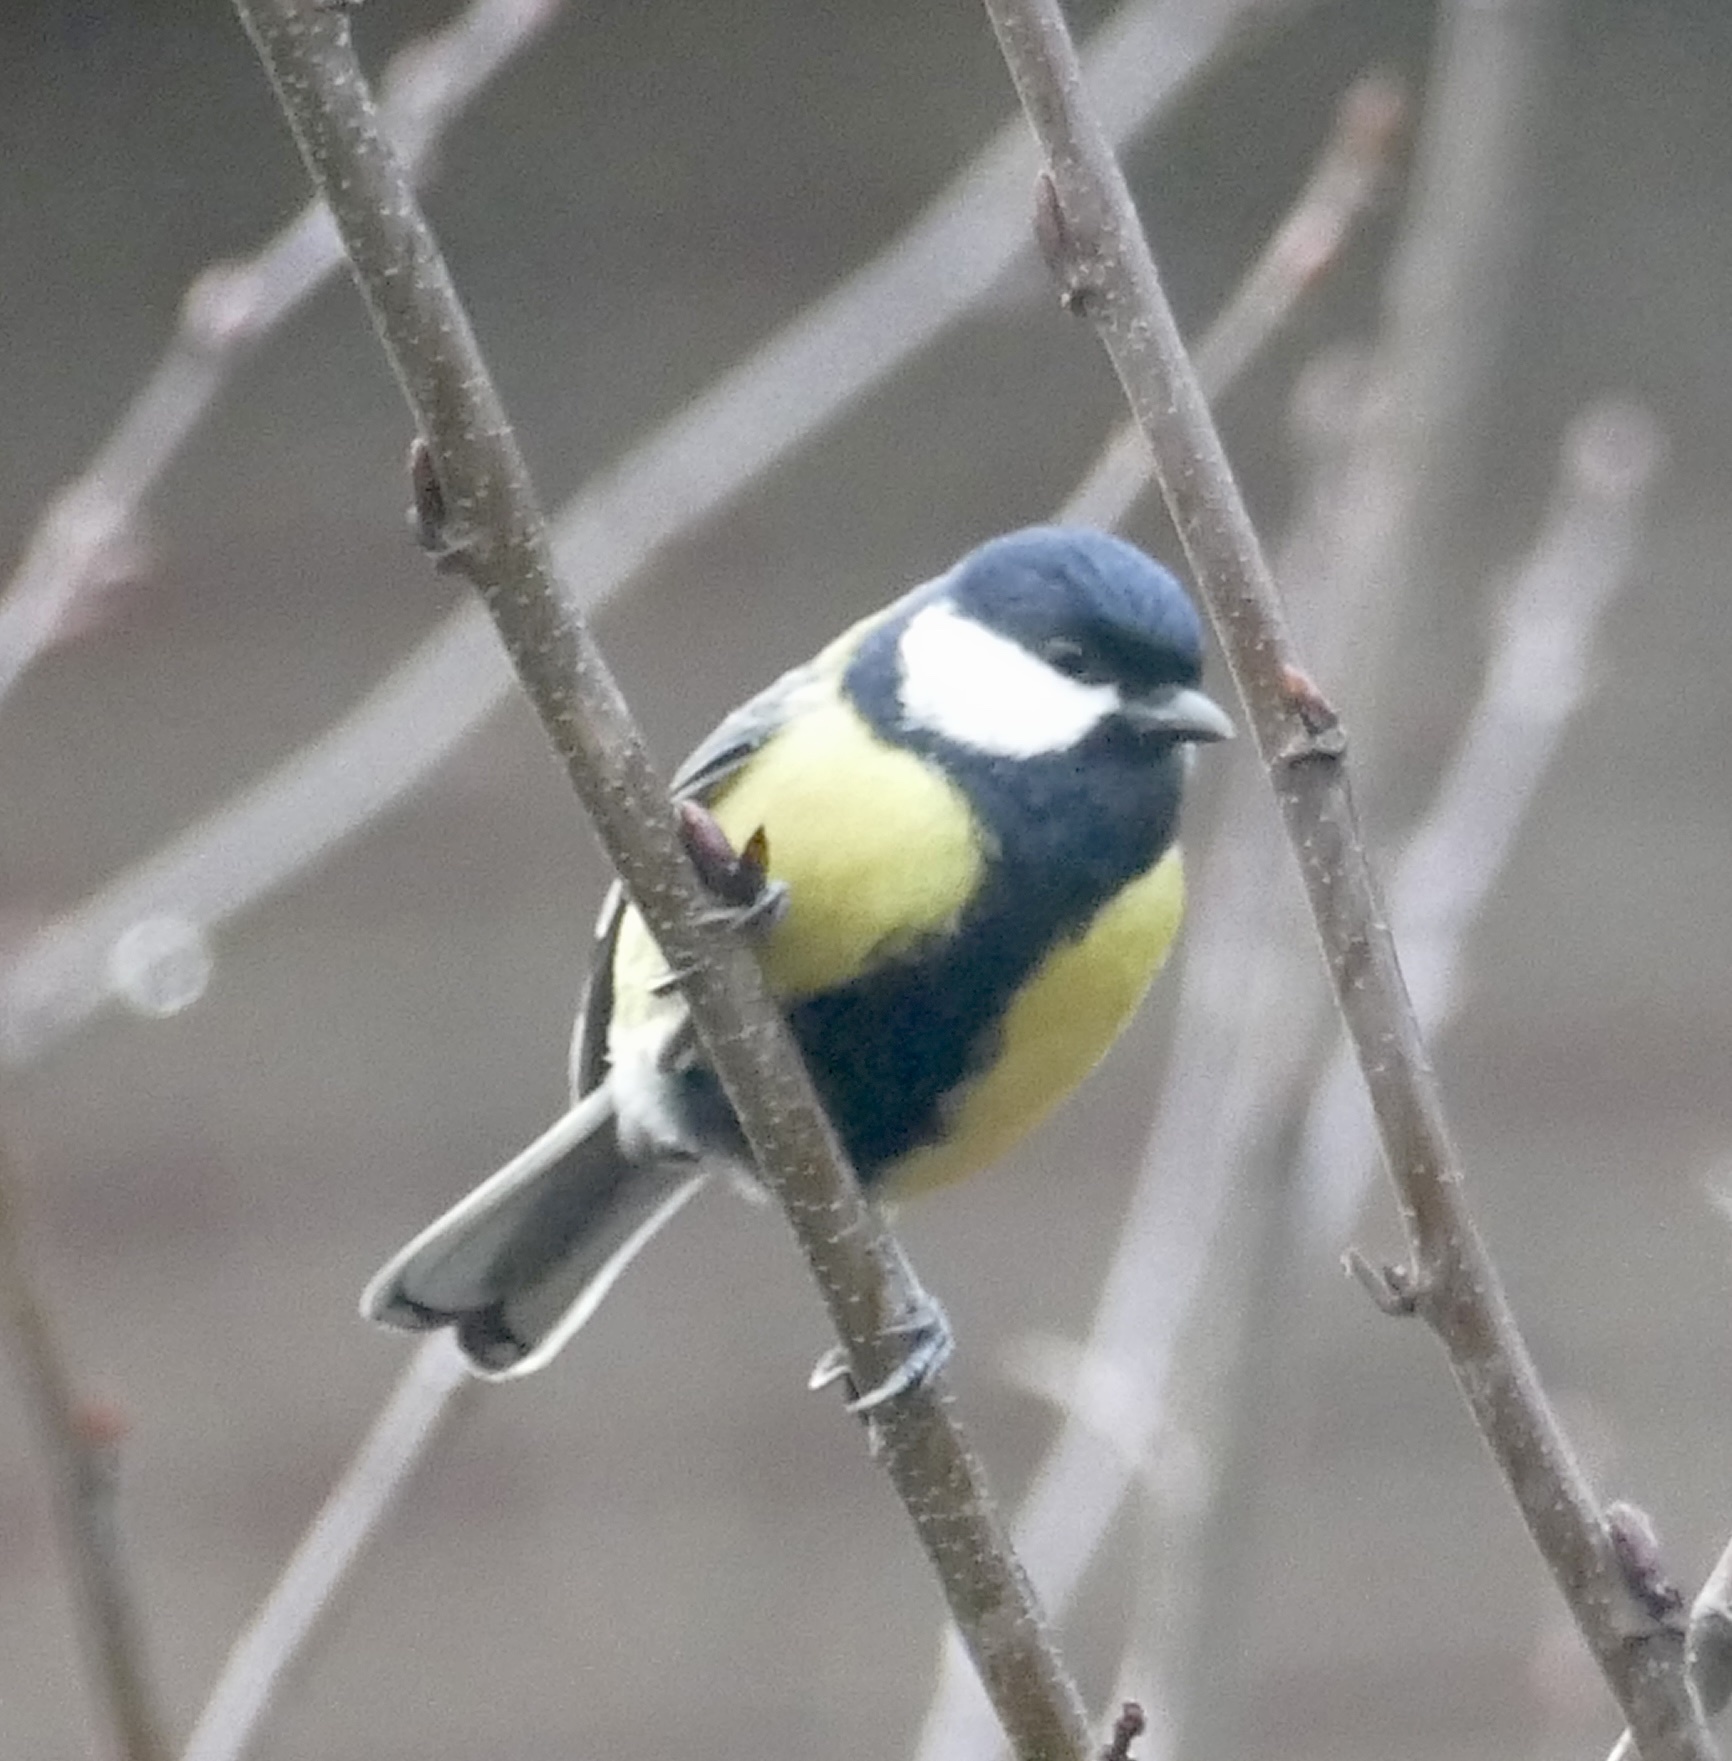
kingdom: Animalia
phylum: Chordata
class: Aves
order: Passeriformes
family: Paridae
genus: Parus
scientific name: Parus major
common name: Great tit
